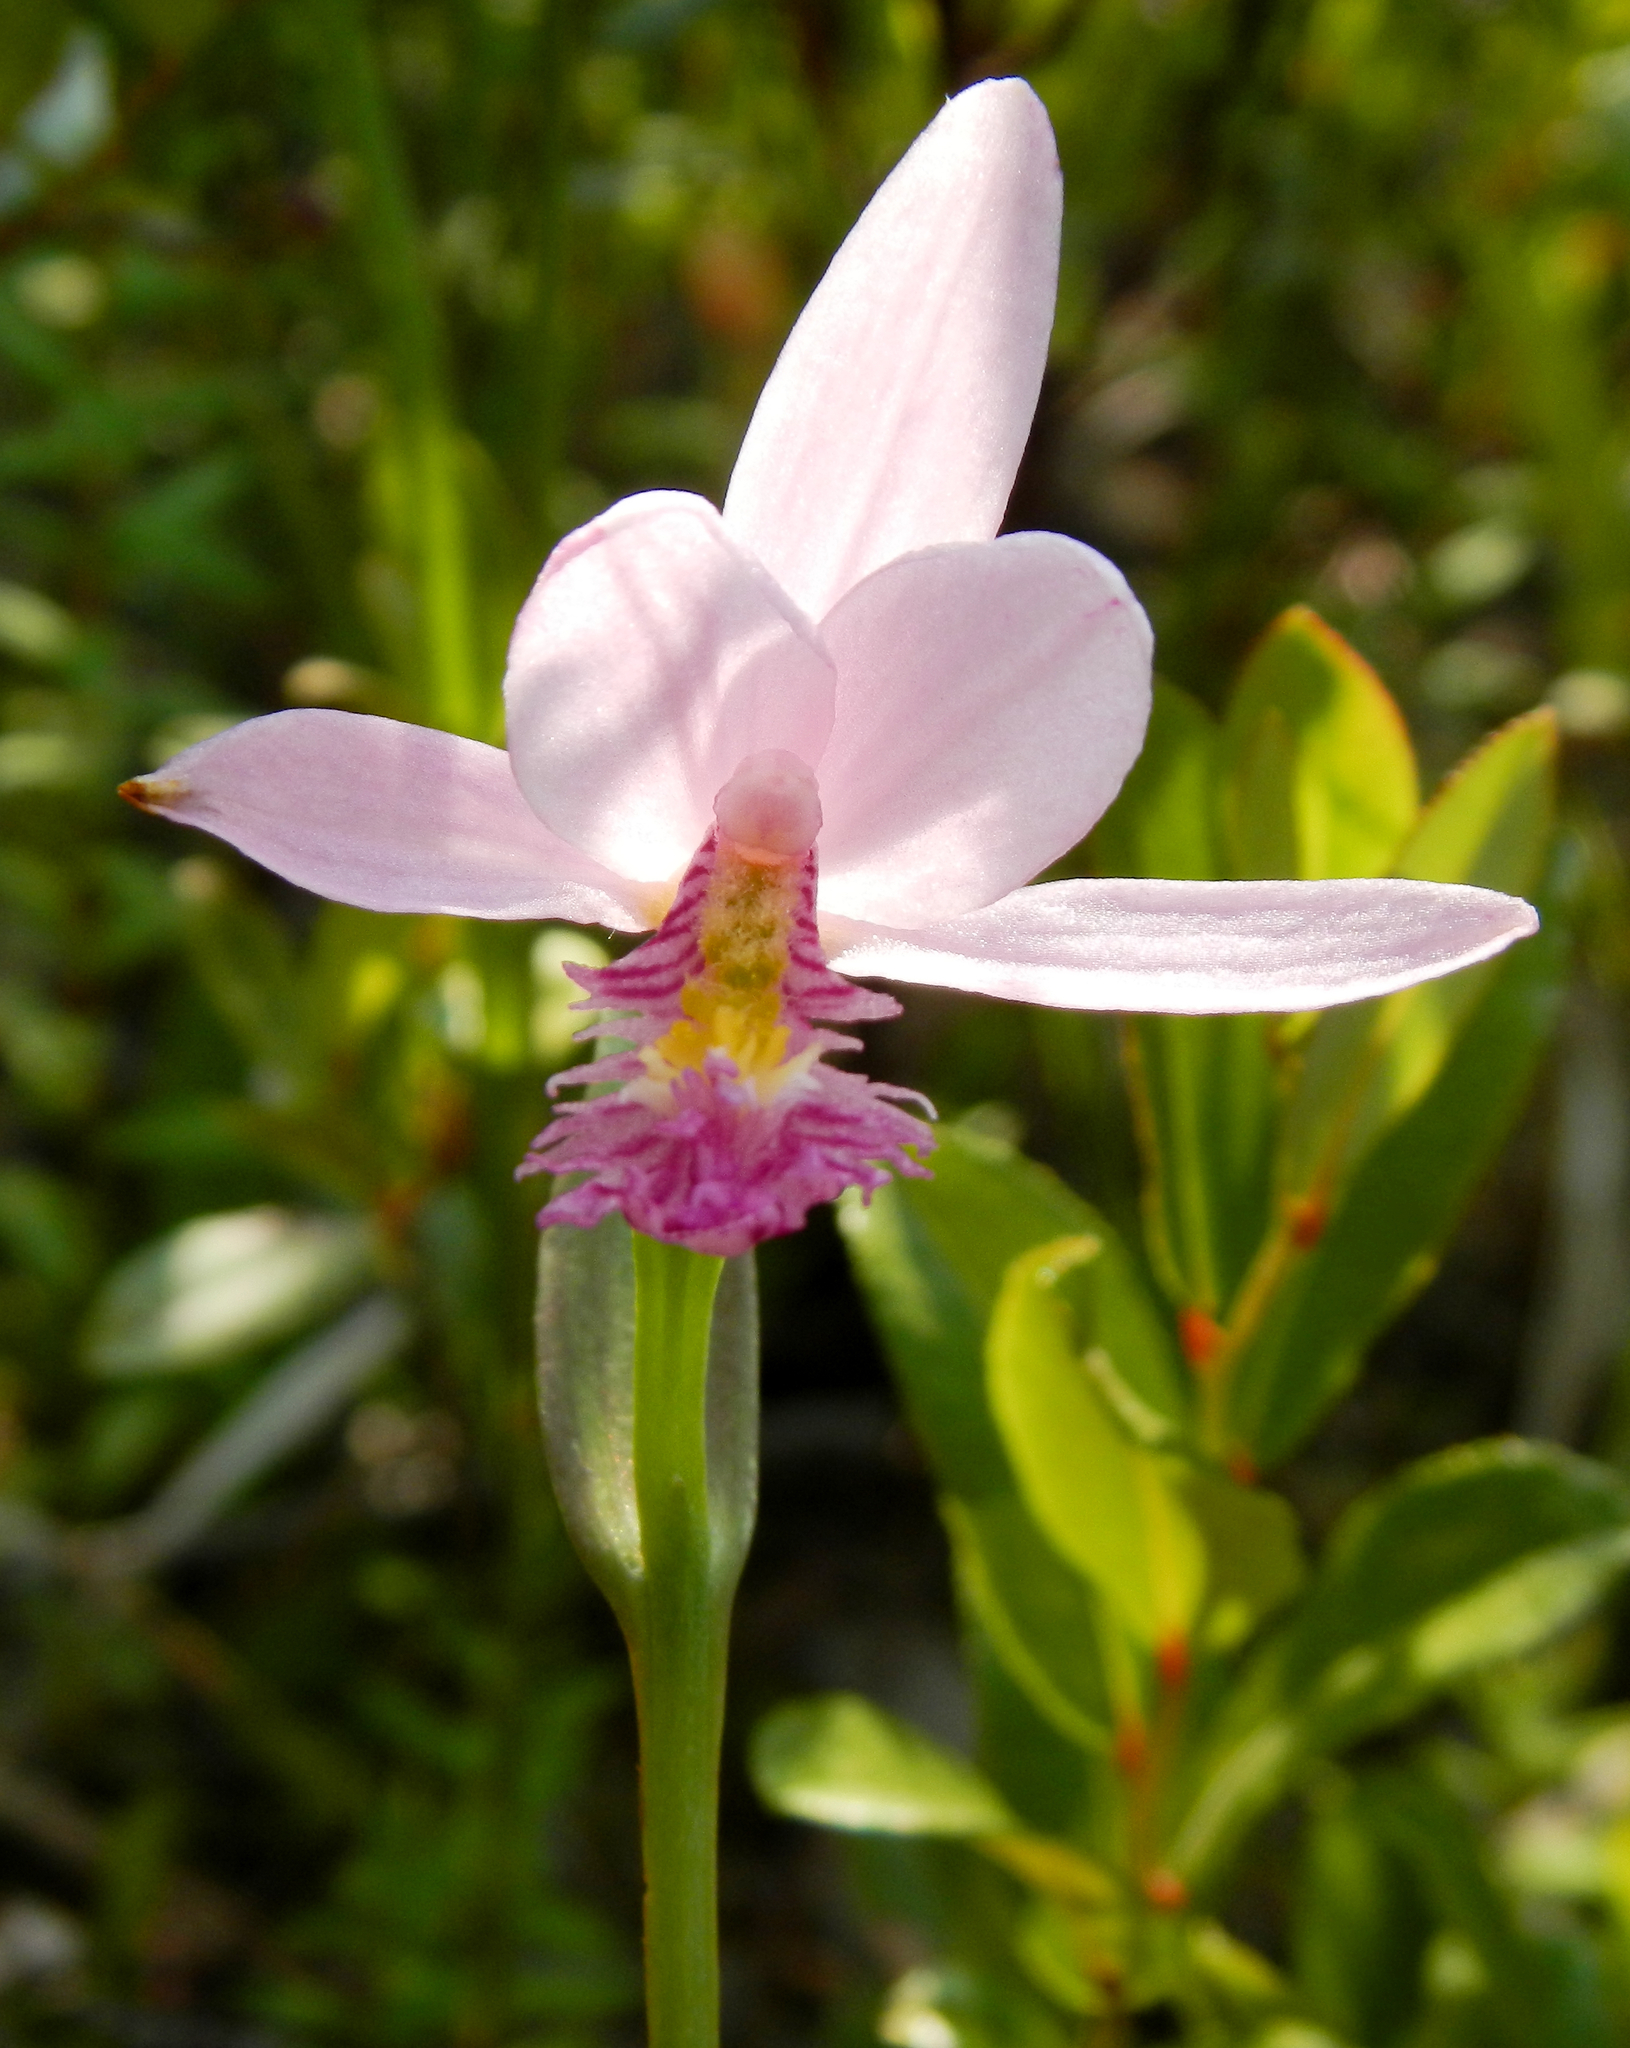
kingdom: Plantae
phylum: Tracheophyta
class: Liliopsida
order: Asparagales
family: Orchidaceae
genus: Pogonia
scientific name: Pogonia ophioglossoides
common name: Rose pogonia
